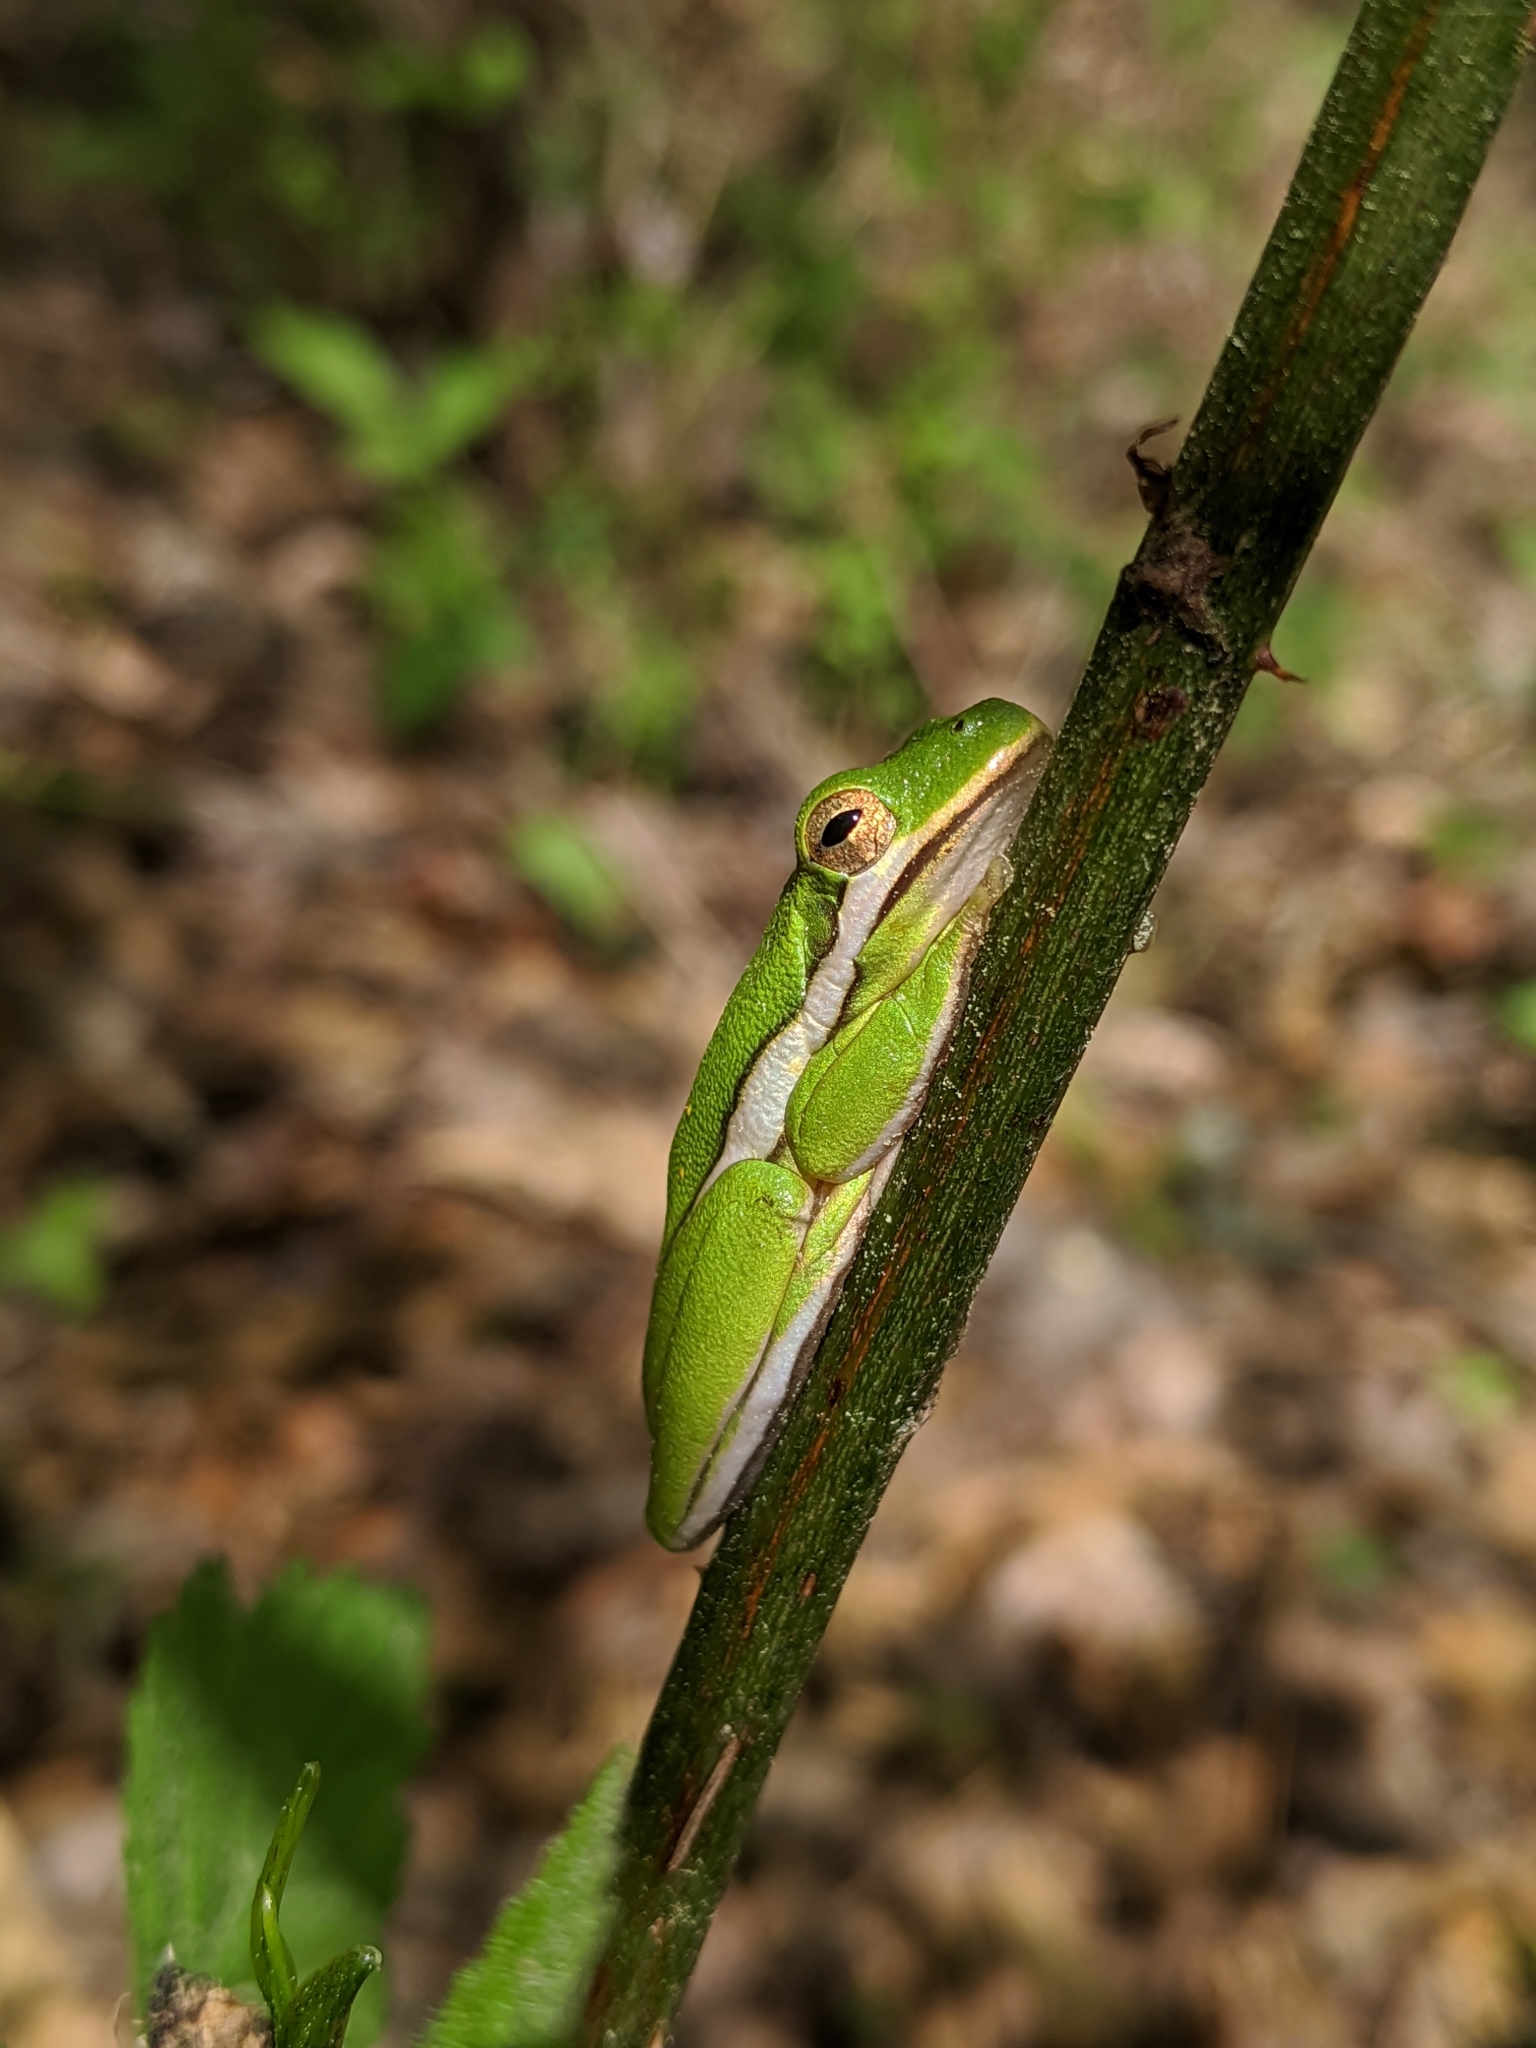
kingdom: Animalia
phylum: Chordata
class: Amphibia
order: Anura
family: Hylidae
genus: Dryophytes
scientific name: Dryophytes cinereus
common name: Green treefrog
